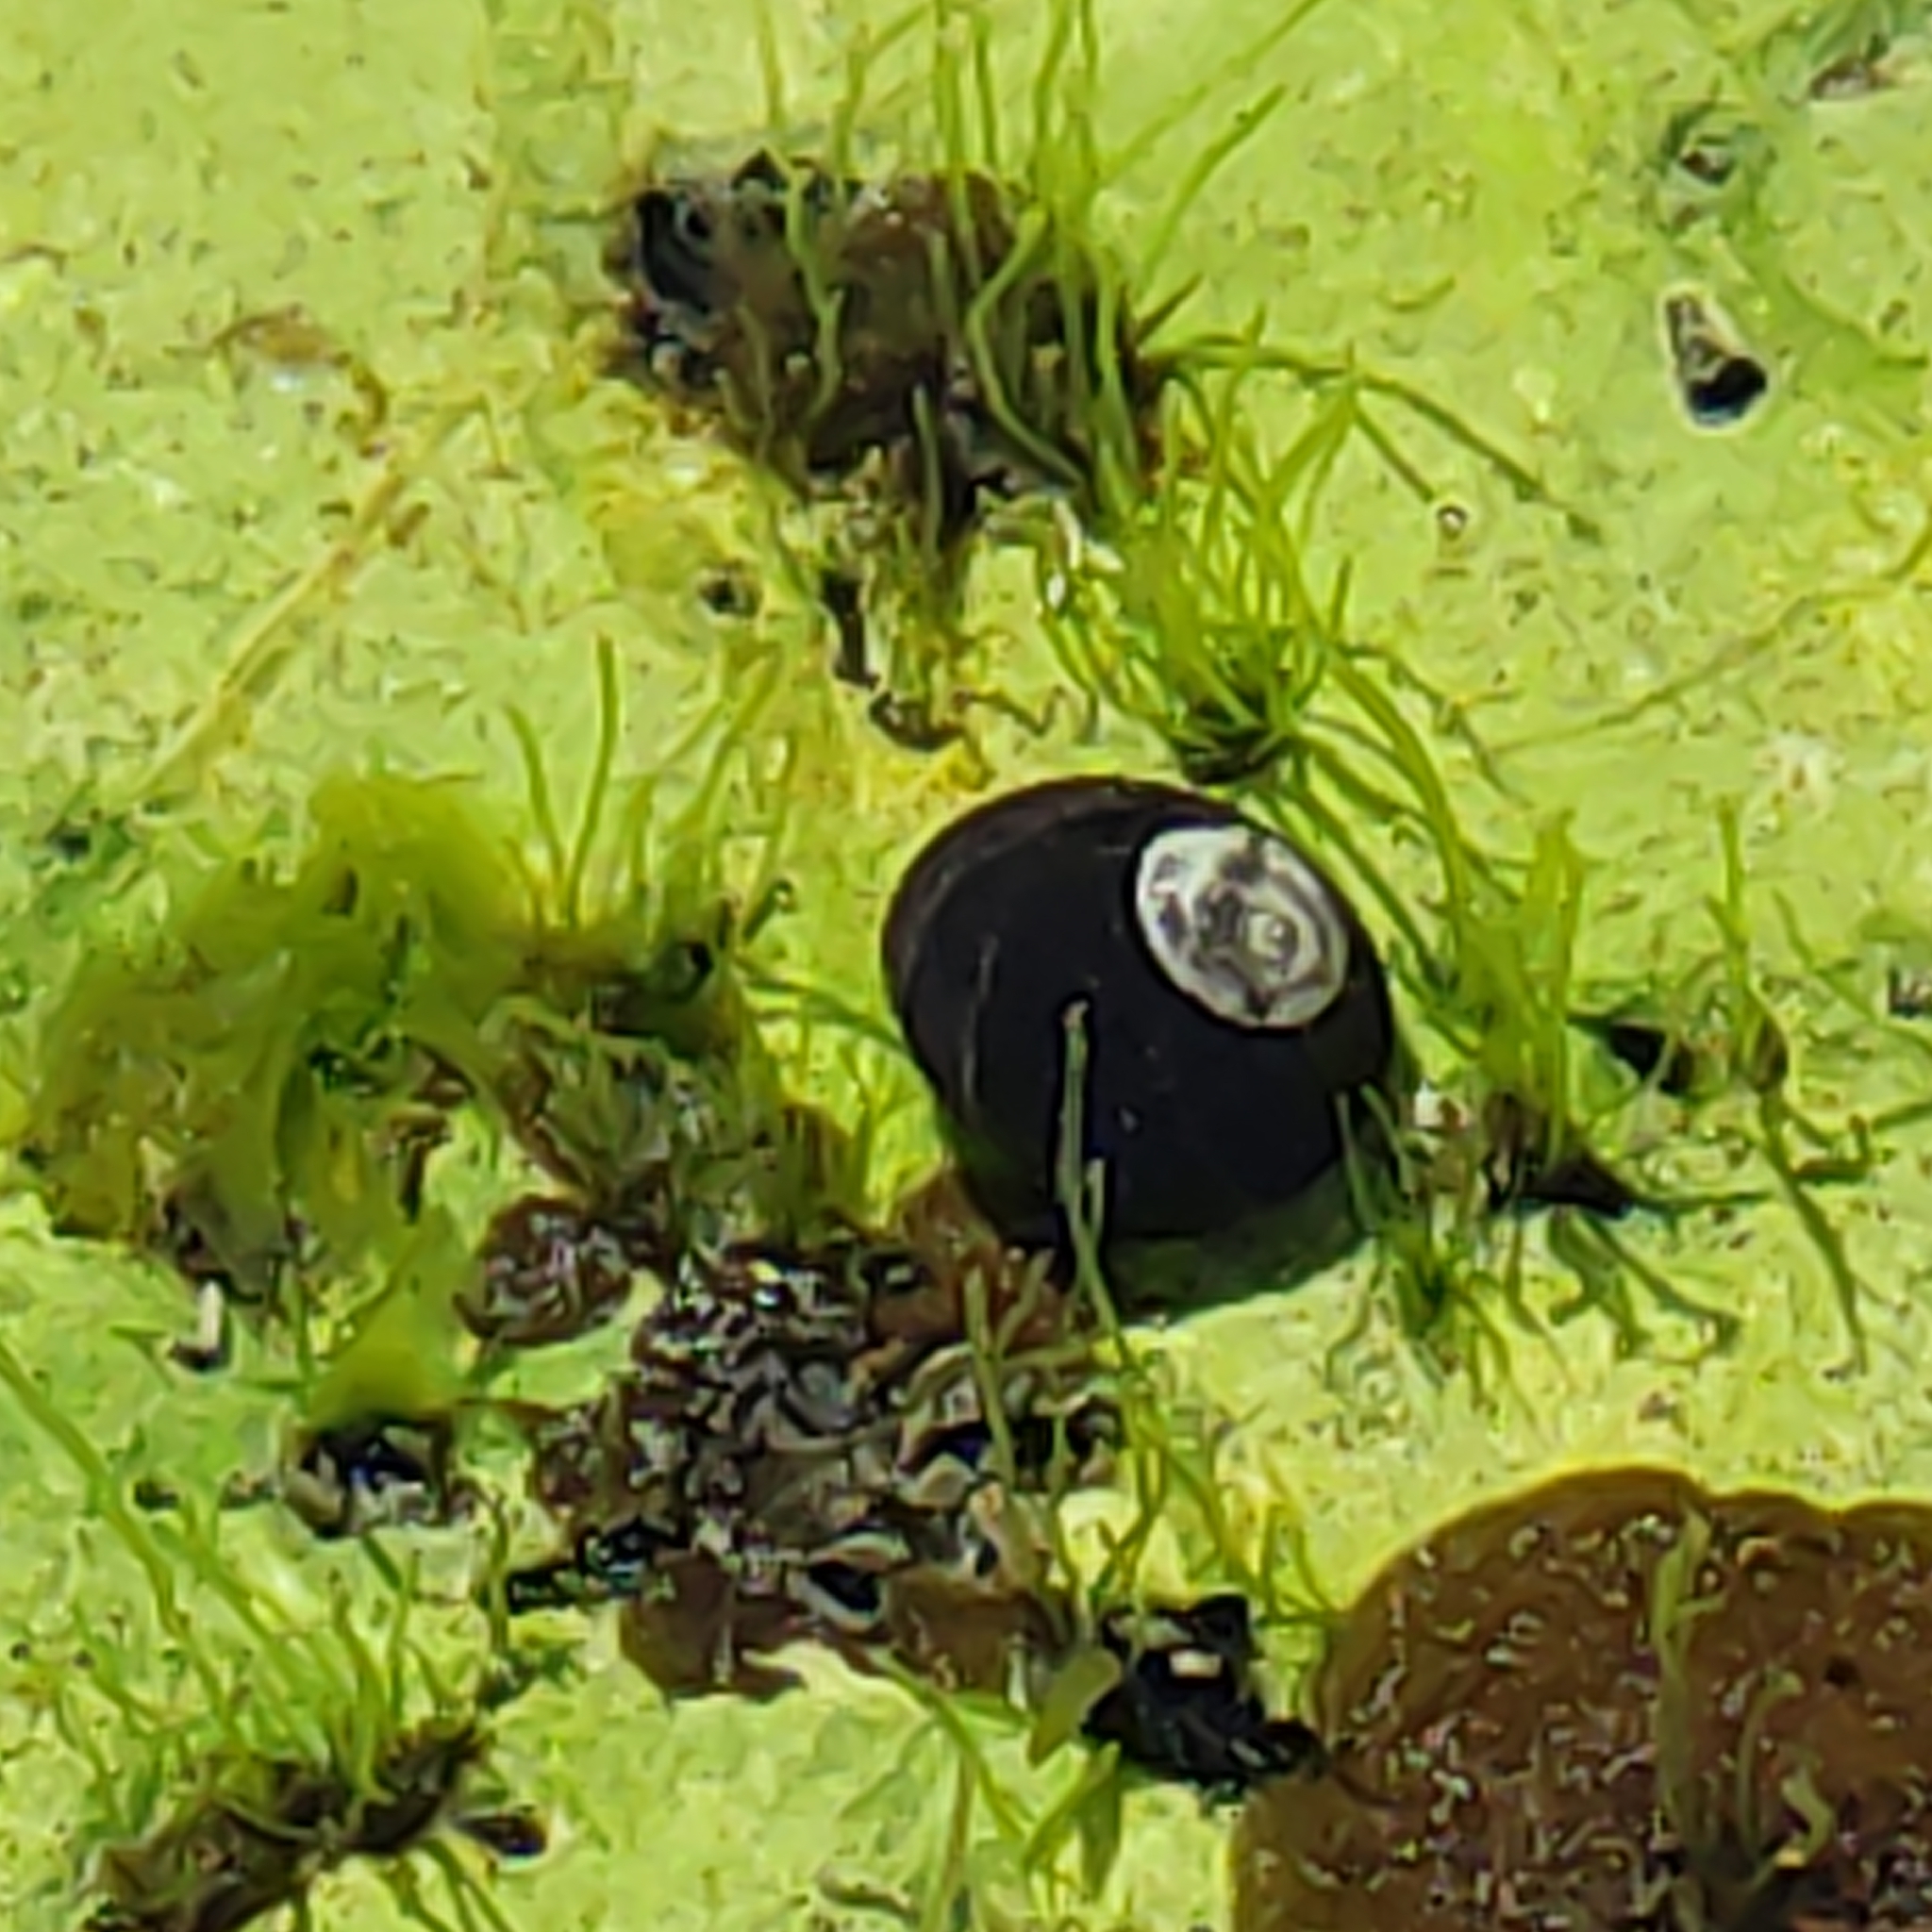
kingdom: Animalia
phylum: Mollusca
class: Gastropoda
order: Trochida
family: Trochidae
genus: Diloma
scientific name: Diloma aridum
